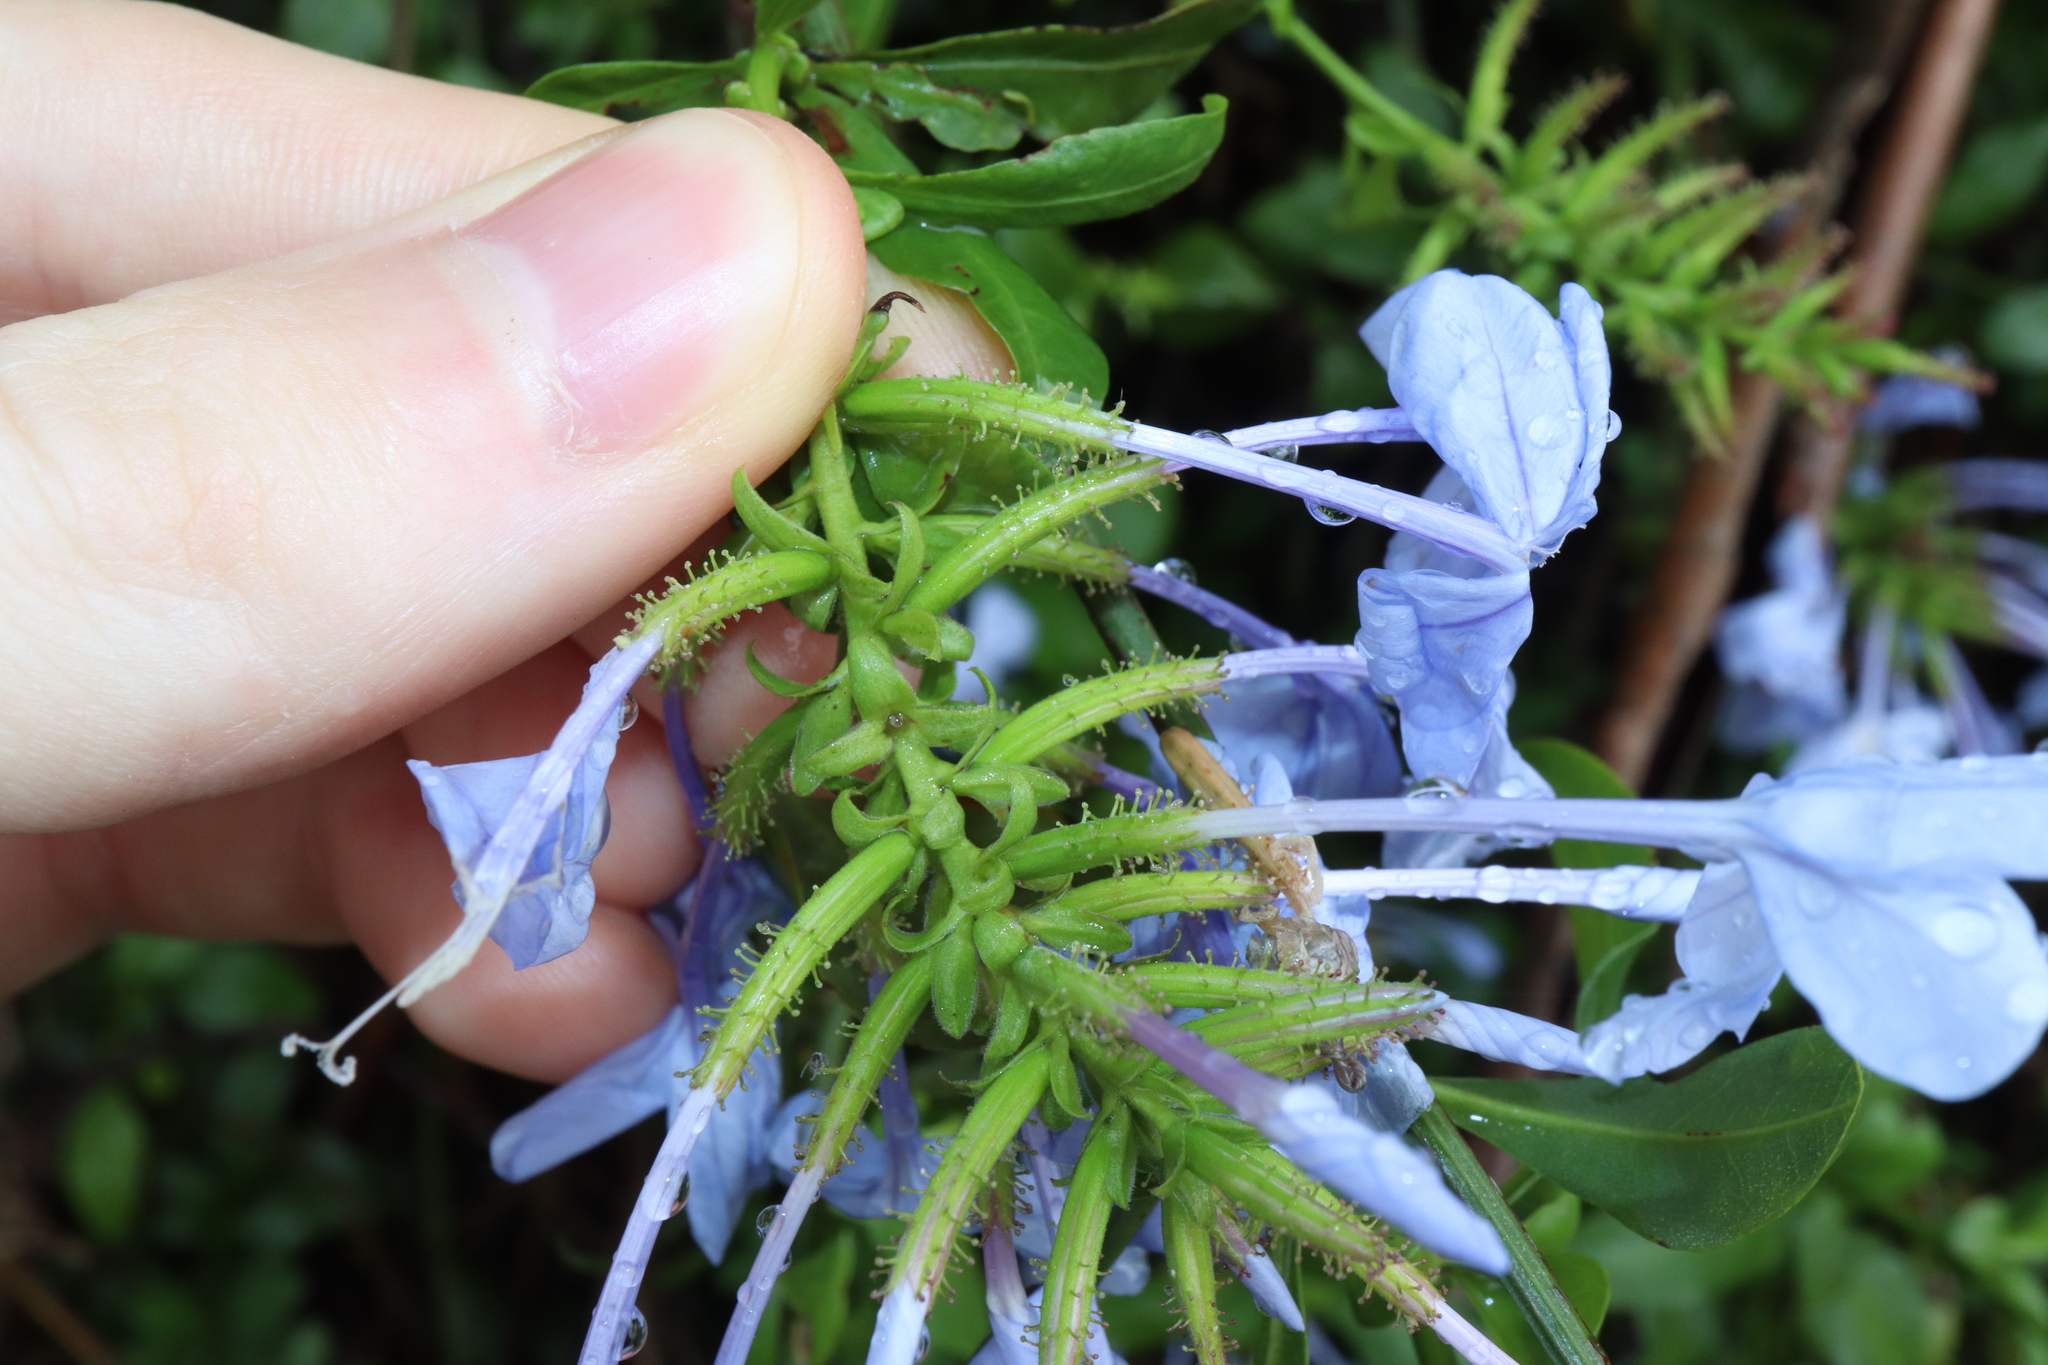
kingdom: Plantae
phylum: Tracheophyta
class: Magnoliopsida
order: Caryophyllales
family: Plumbaginaceae
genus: Plumbago
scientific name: Plumbago auriculata
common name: Cape leadwort
